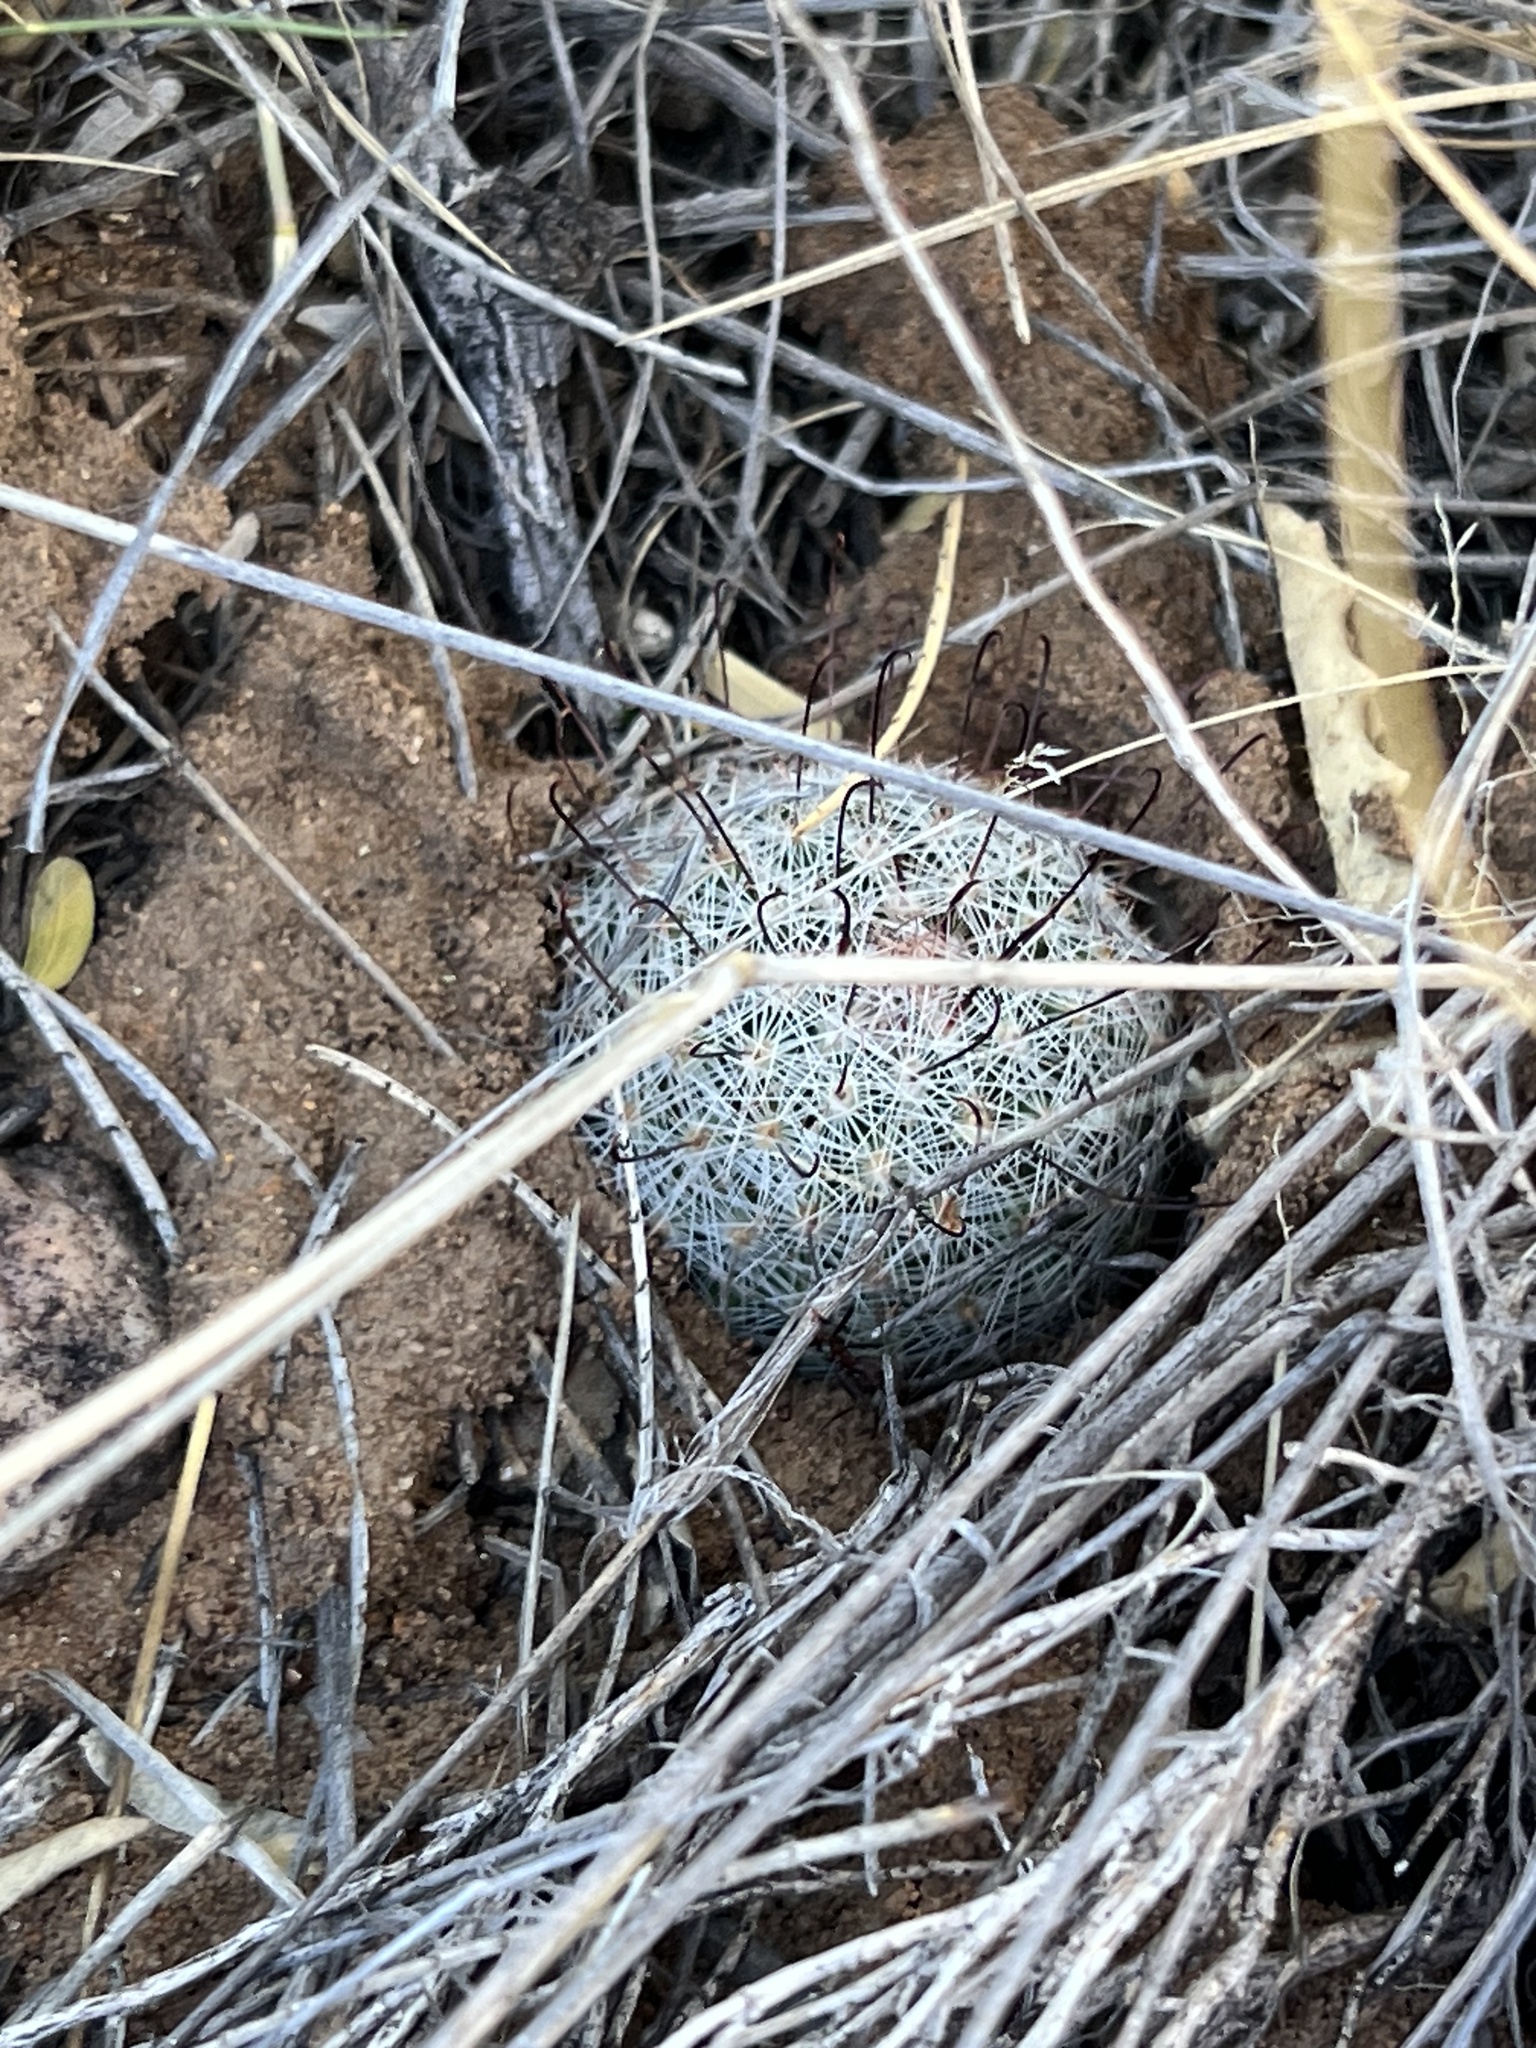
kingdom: Plantae
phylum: Tracheophyta
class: Magnoliopsida
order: Caryophyllales
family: Cactaceae
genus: Cochemiea
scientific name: Cochemiea grahamii
